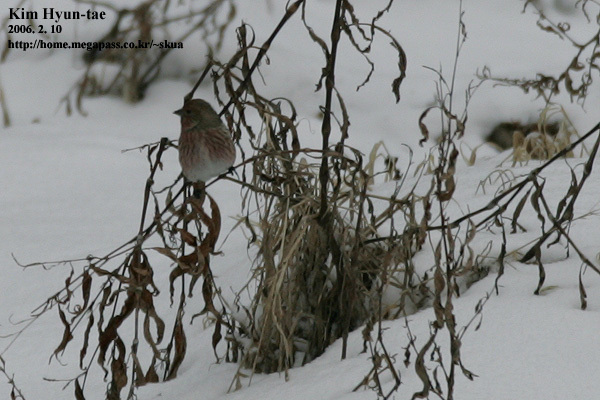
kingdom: Animalia
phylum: Chordata
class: Aves
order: Passeriformes
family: Fringillidae
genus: Carpodacus
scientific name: Carpodacus roseus
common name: Pallas's rosefinch
